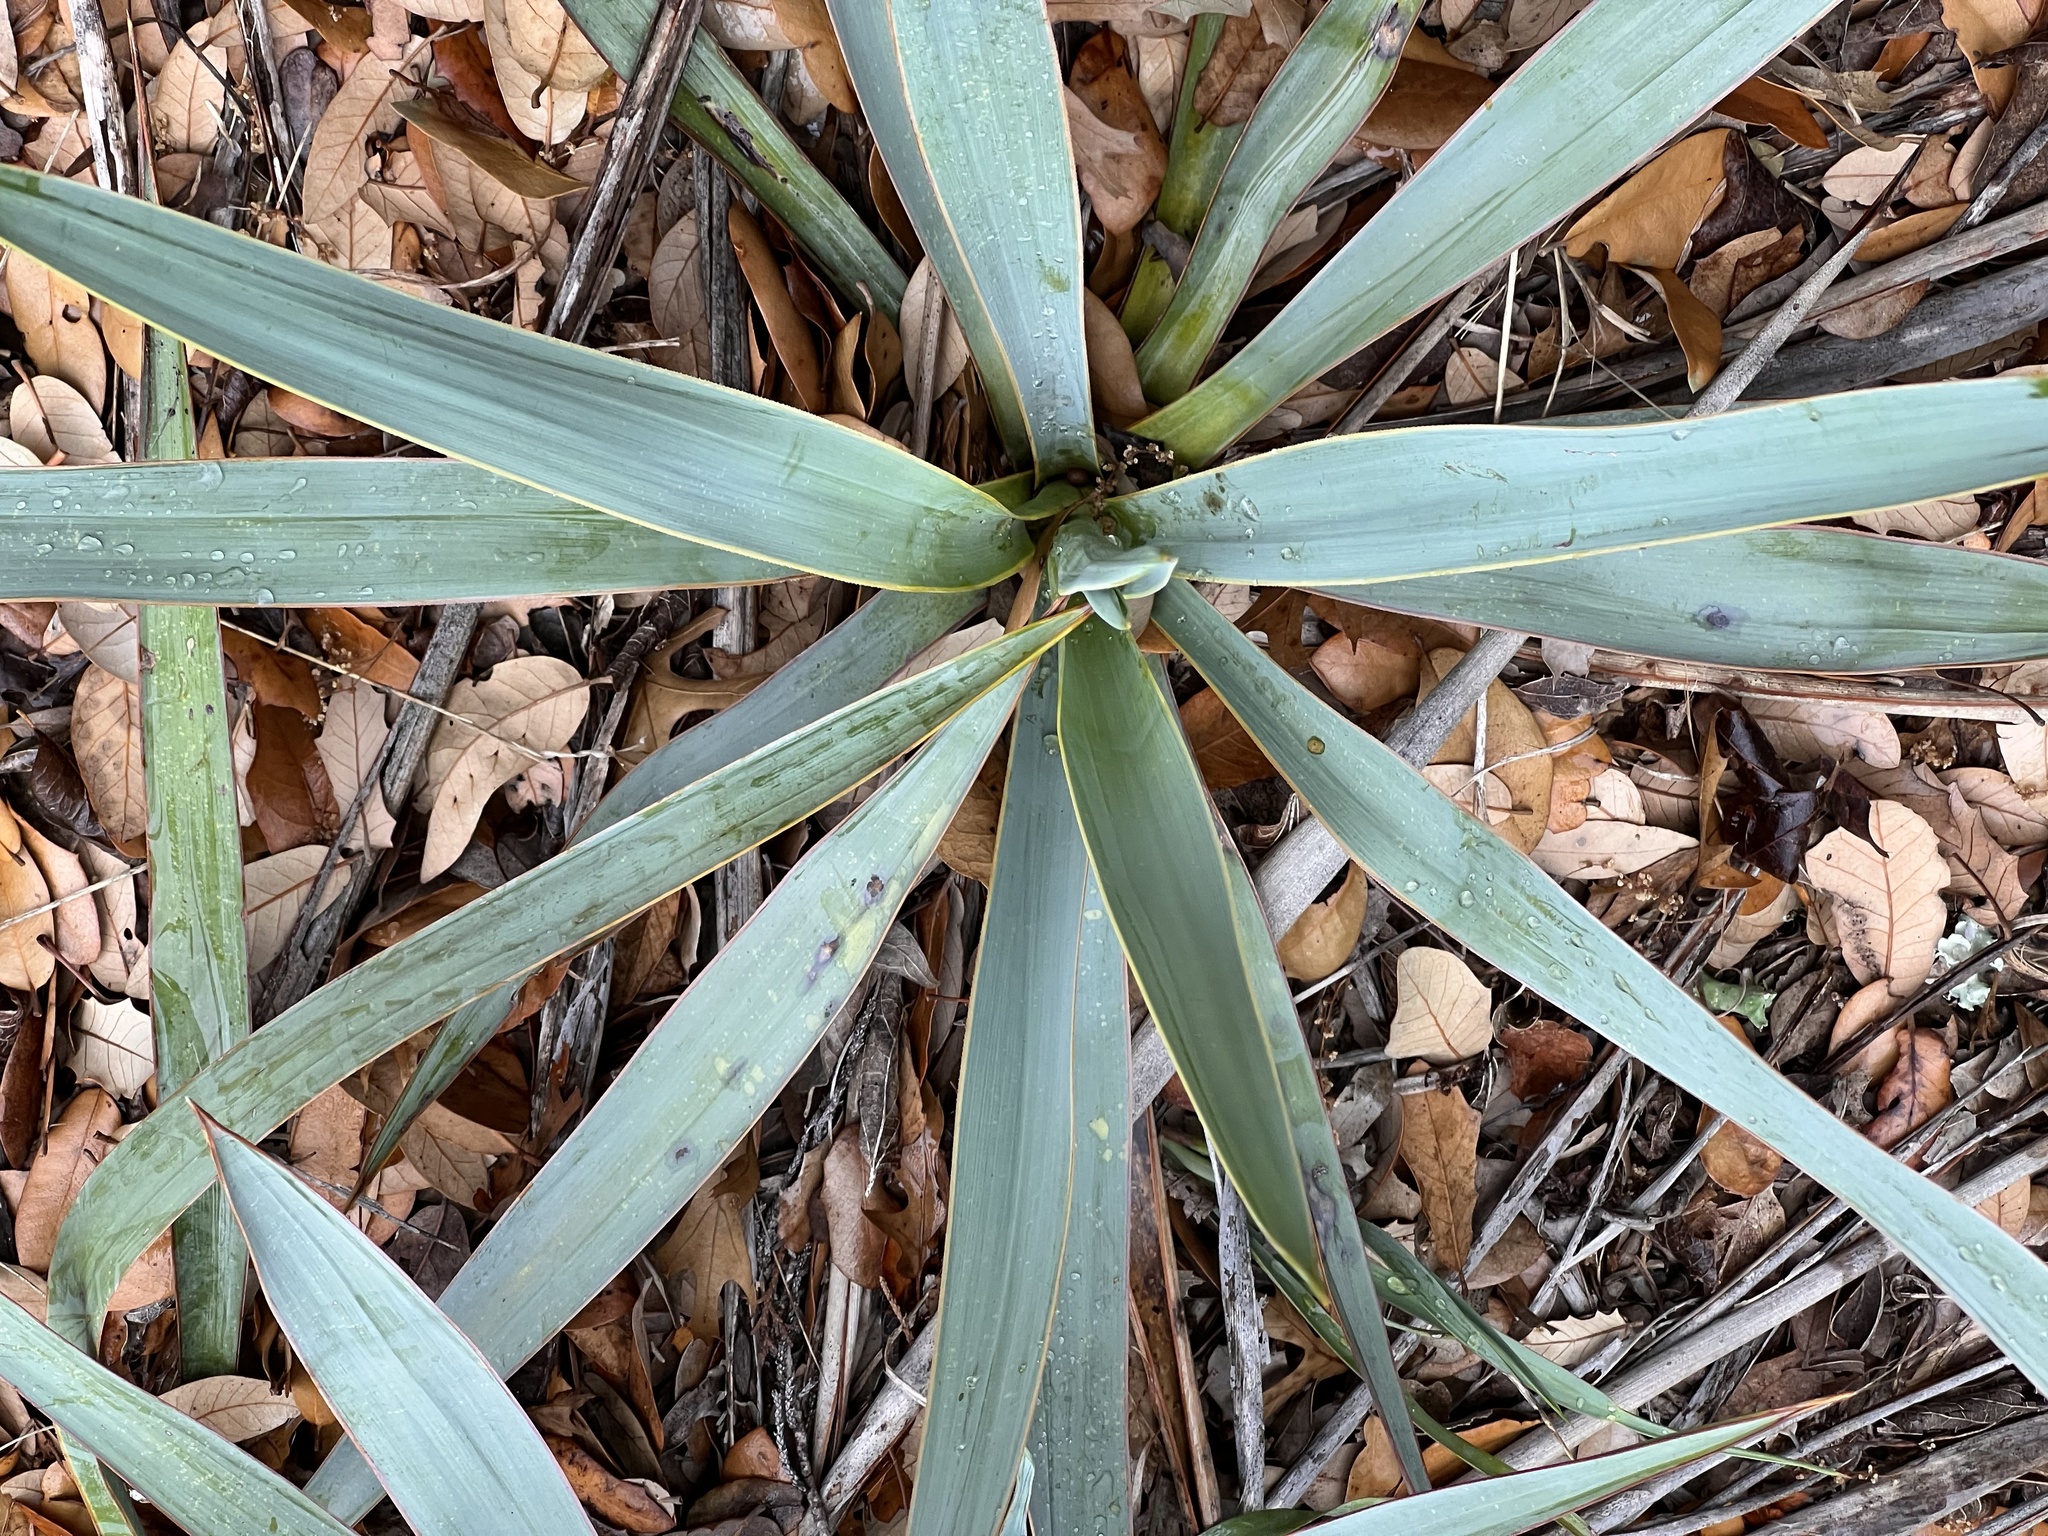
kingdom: Plantae
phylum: Tracheophyta
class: Liliopsida
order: Asparagales
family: Asparagaceae
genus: Yucca
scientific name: Yucca pallida
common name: Pale leaf yucca
